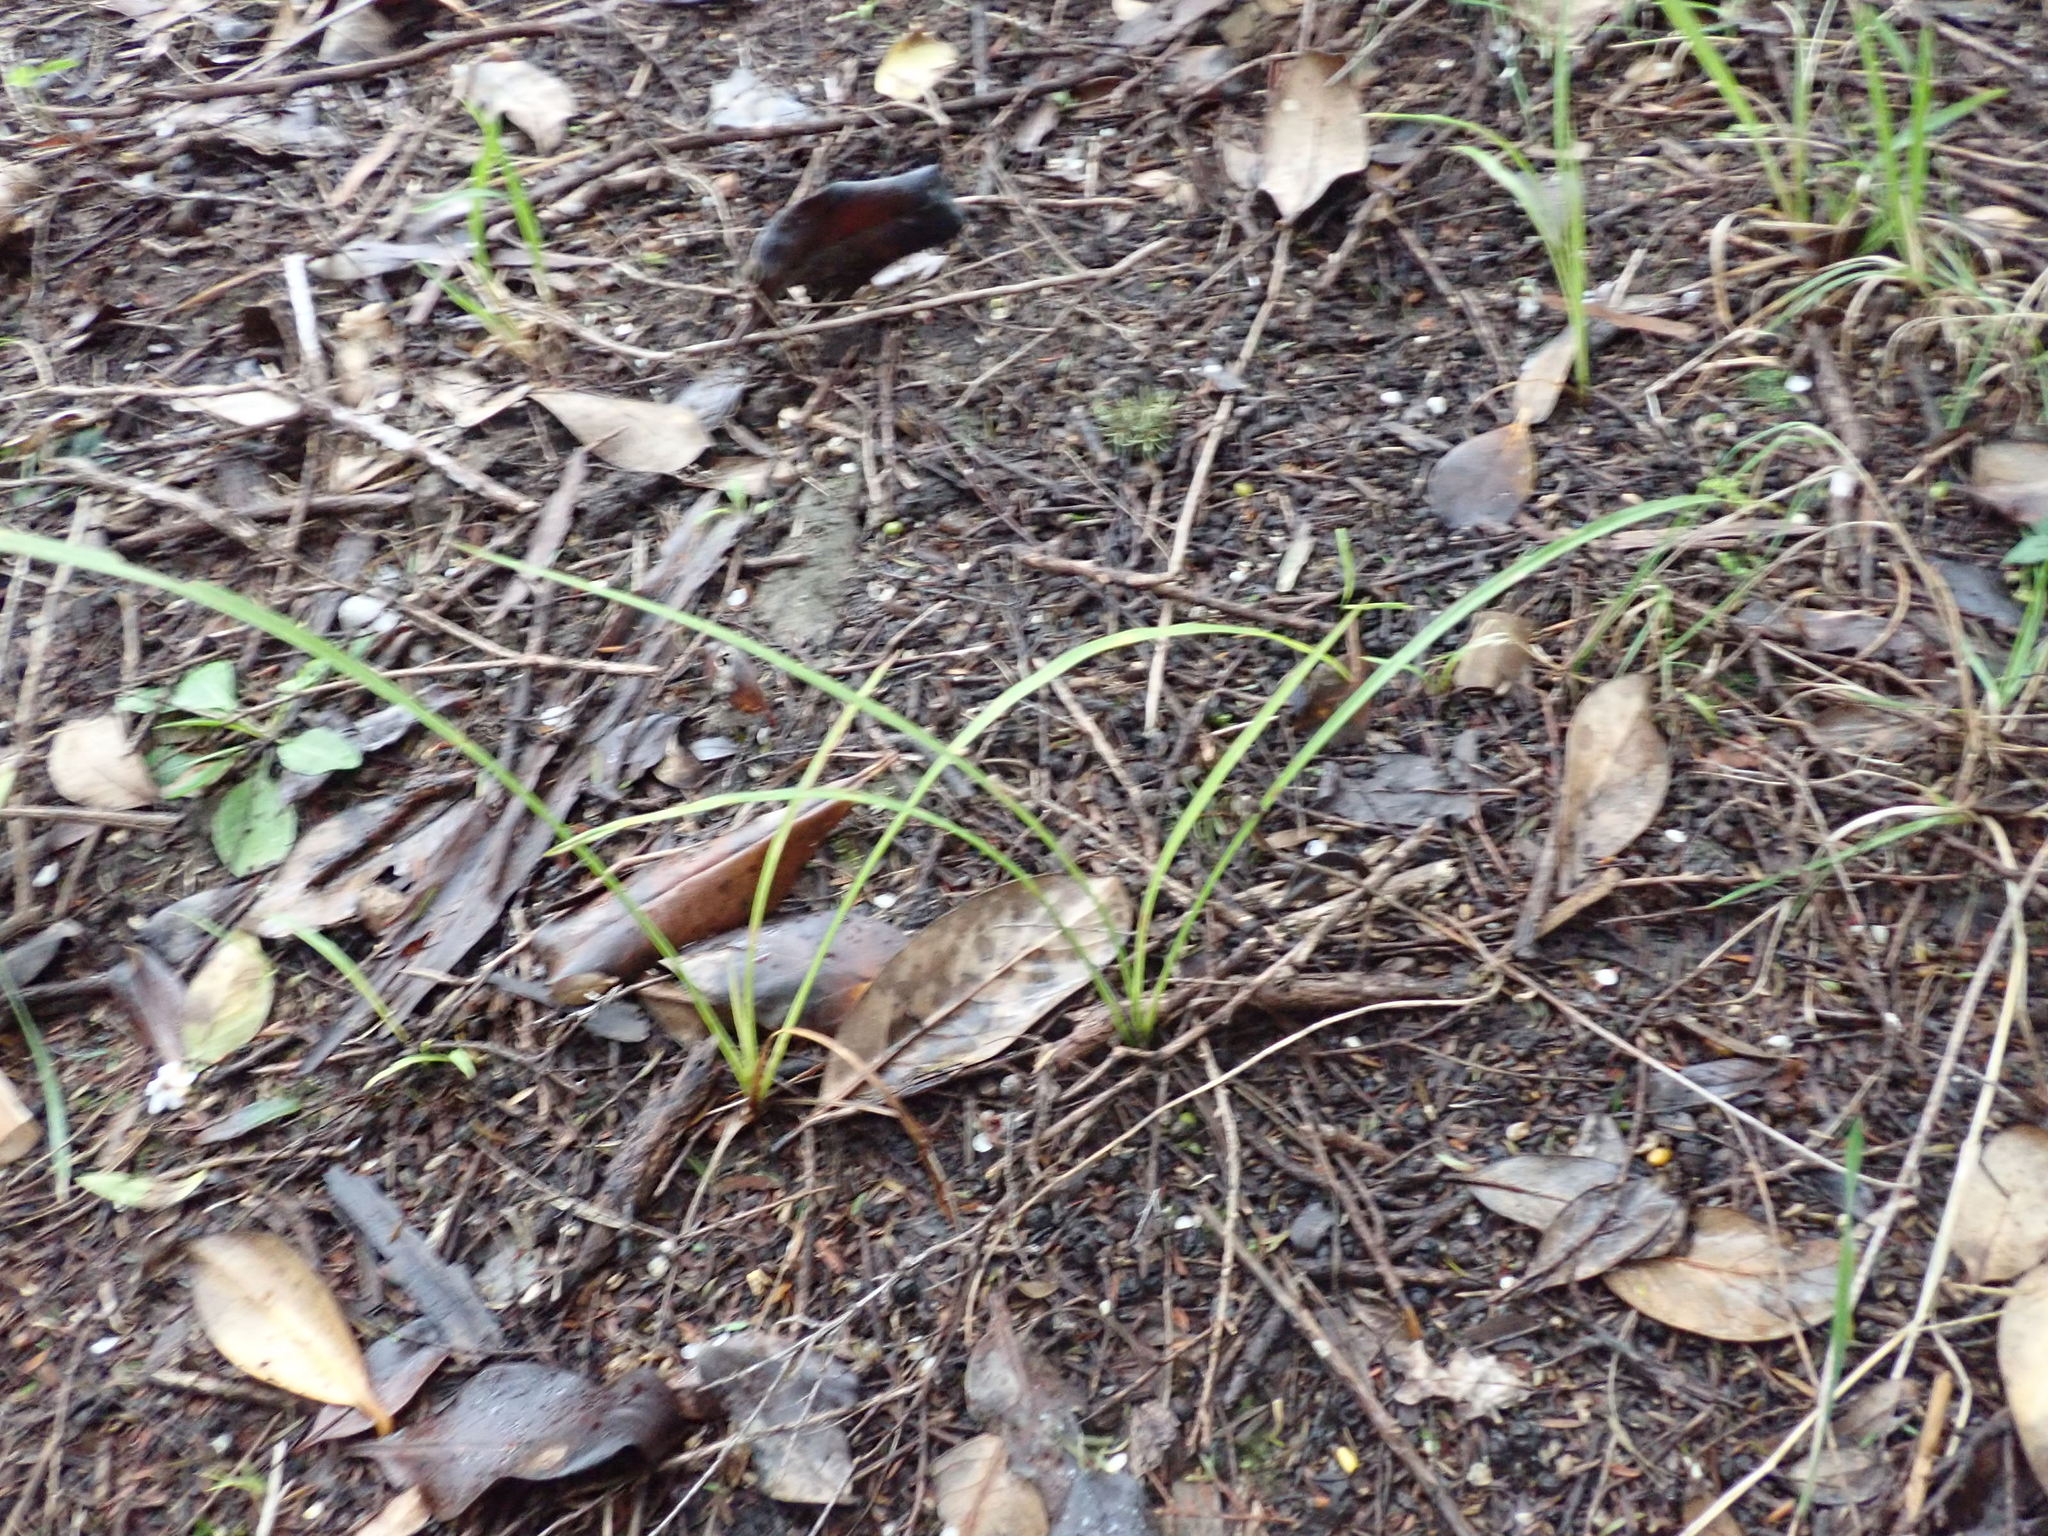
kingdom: Plantae
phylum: Tracheophyta
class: Liliopsida
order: Asparagales
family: Asparagaceae
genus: Cordyline
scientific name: Cordyline australis
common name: Cabbage-palm
